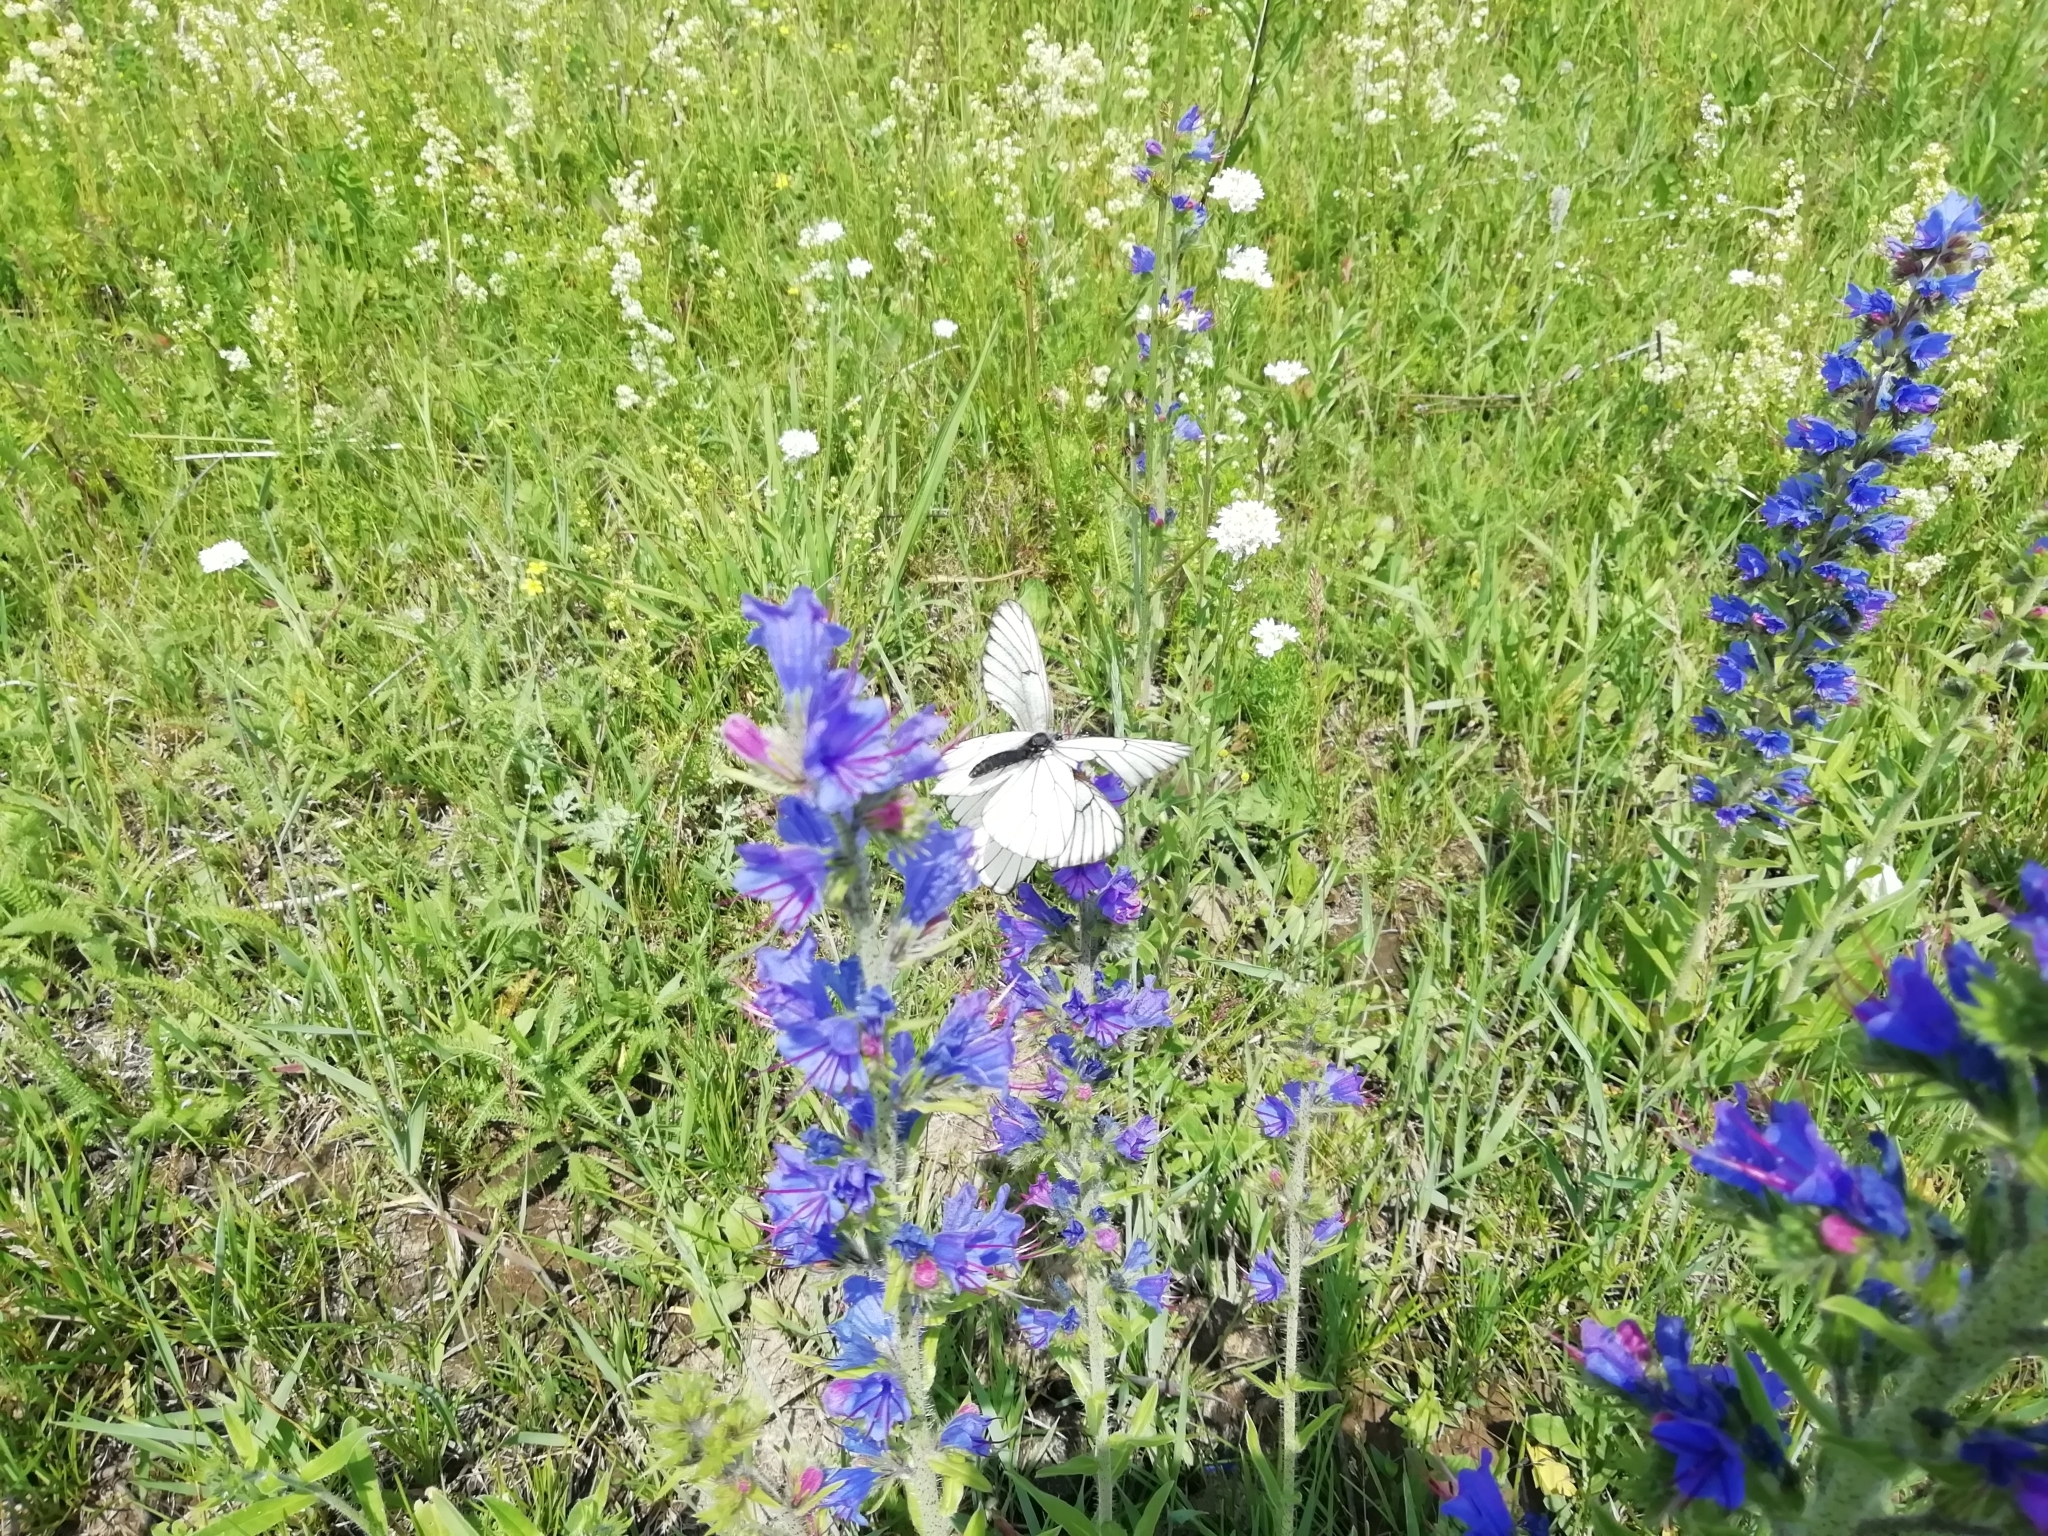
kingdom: Animalia
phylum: Arthropoda
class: Insecta
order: Lepidoptera
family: Pieridae
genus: Aporia
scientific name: Aporia crataegi
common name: Black-veined white
